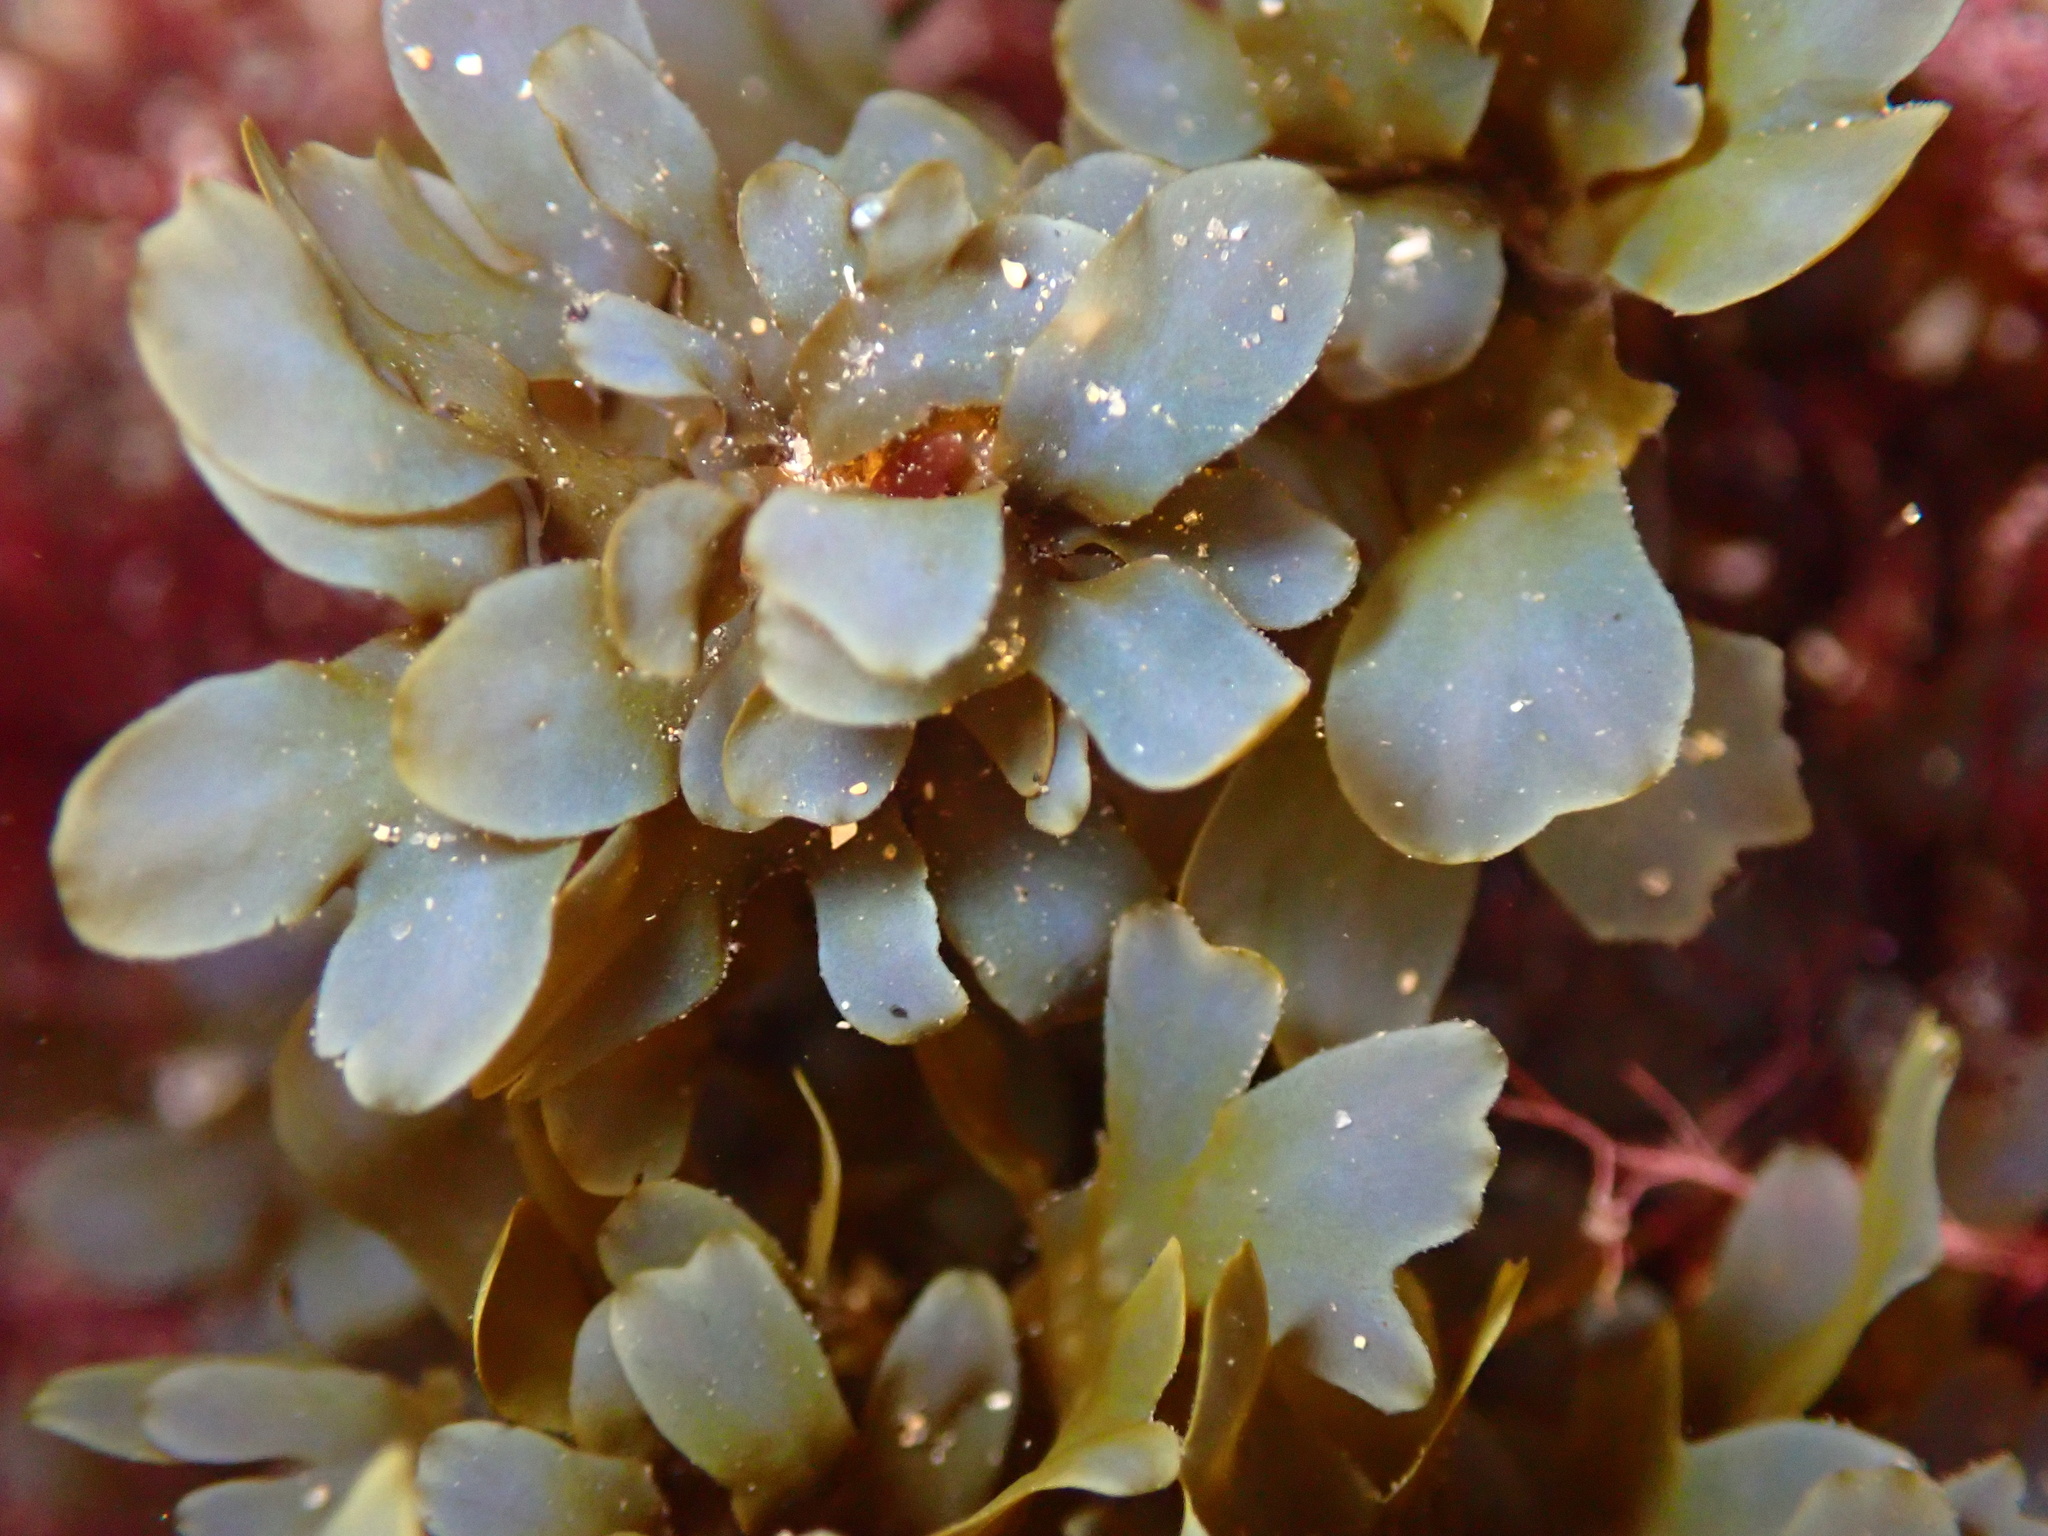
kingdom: Chromista
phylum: Ochrophyta
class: Phaeophyceae
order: Dictyotales
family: Dictyotaceae
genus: Dictyopteris
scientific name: Dictyopteris undulata
